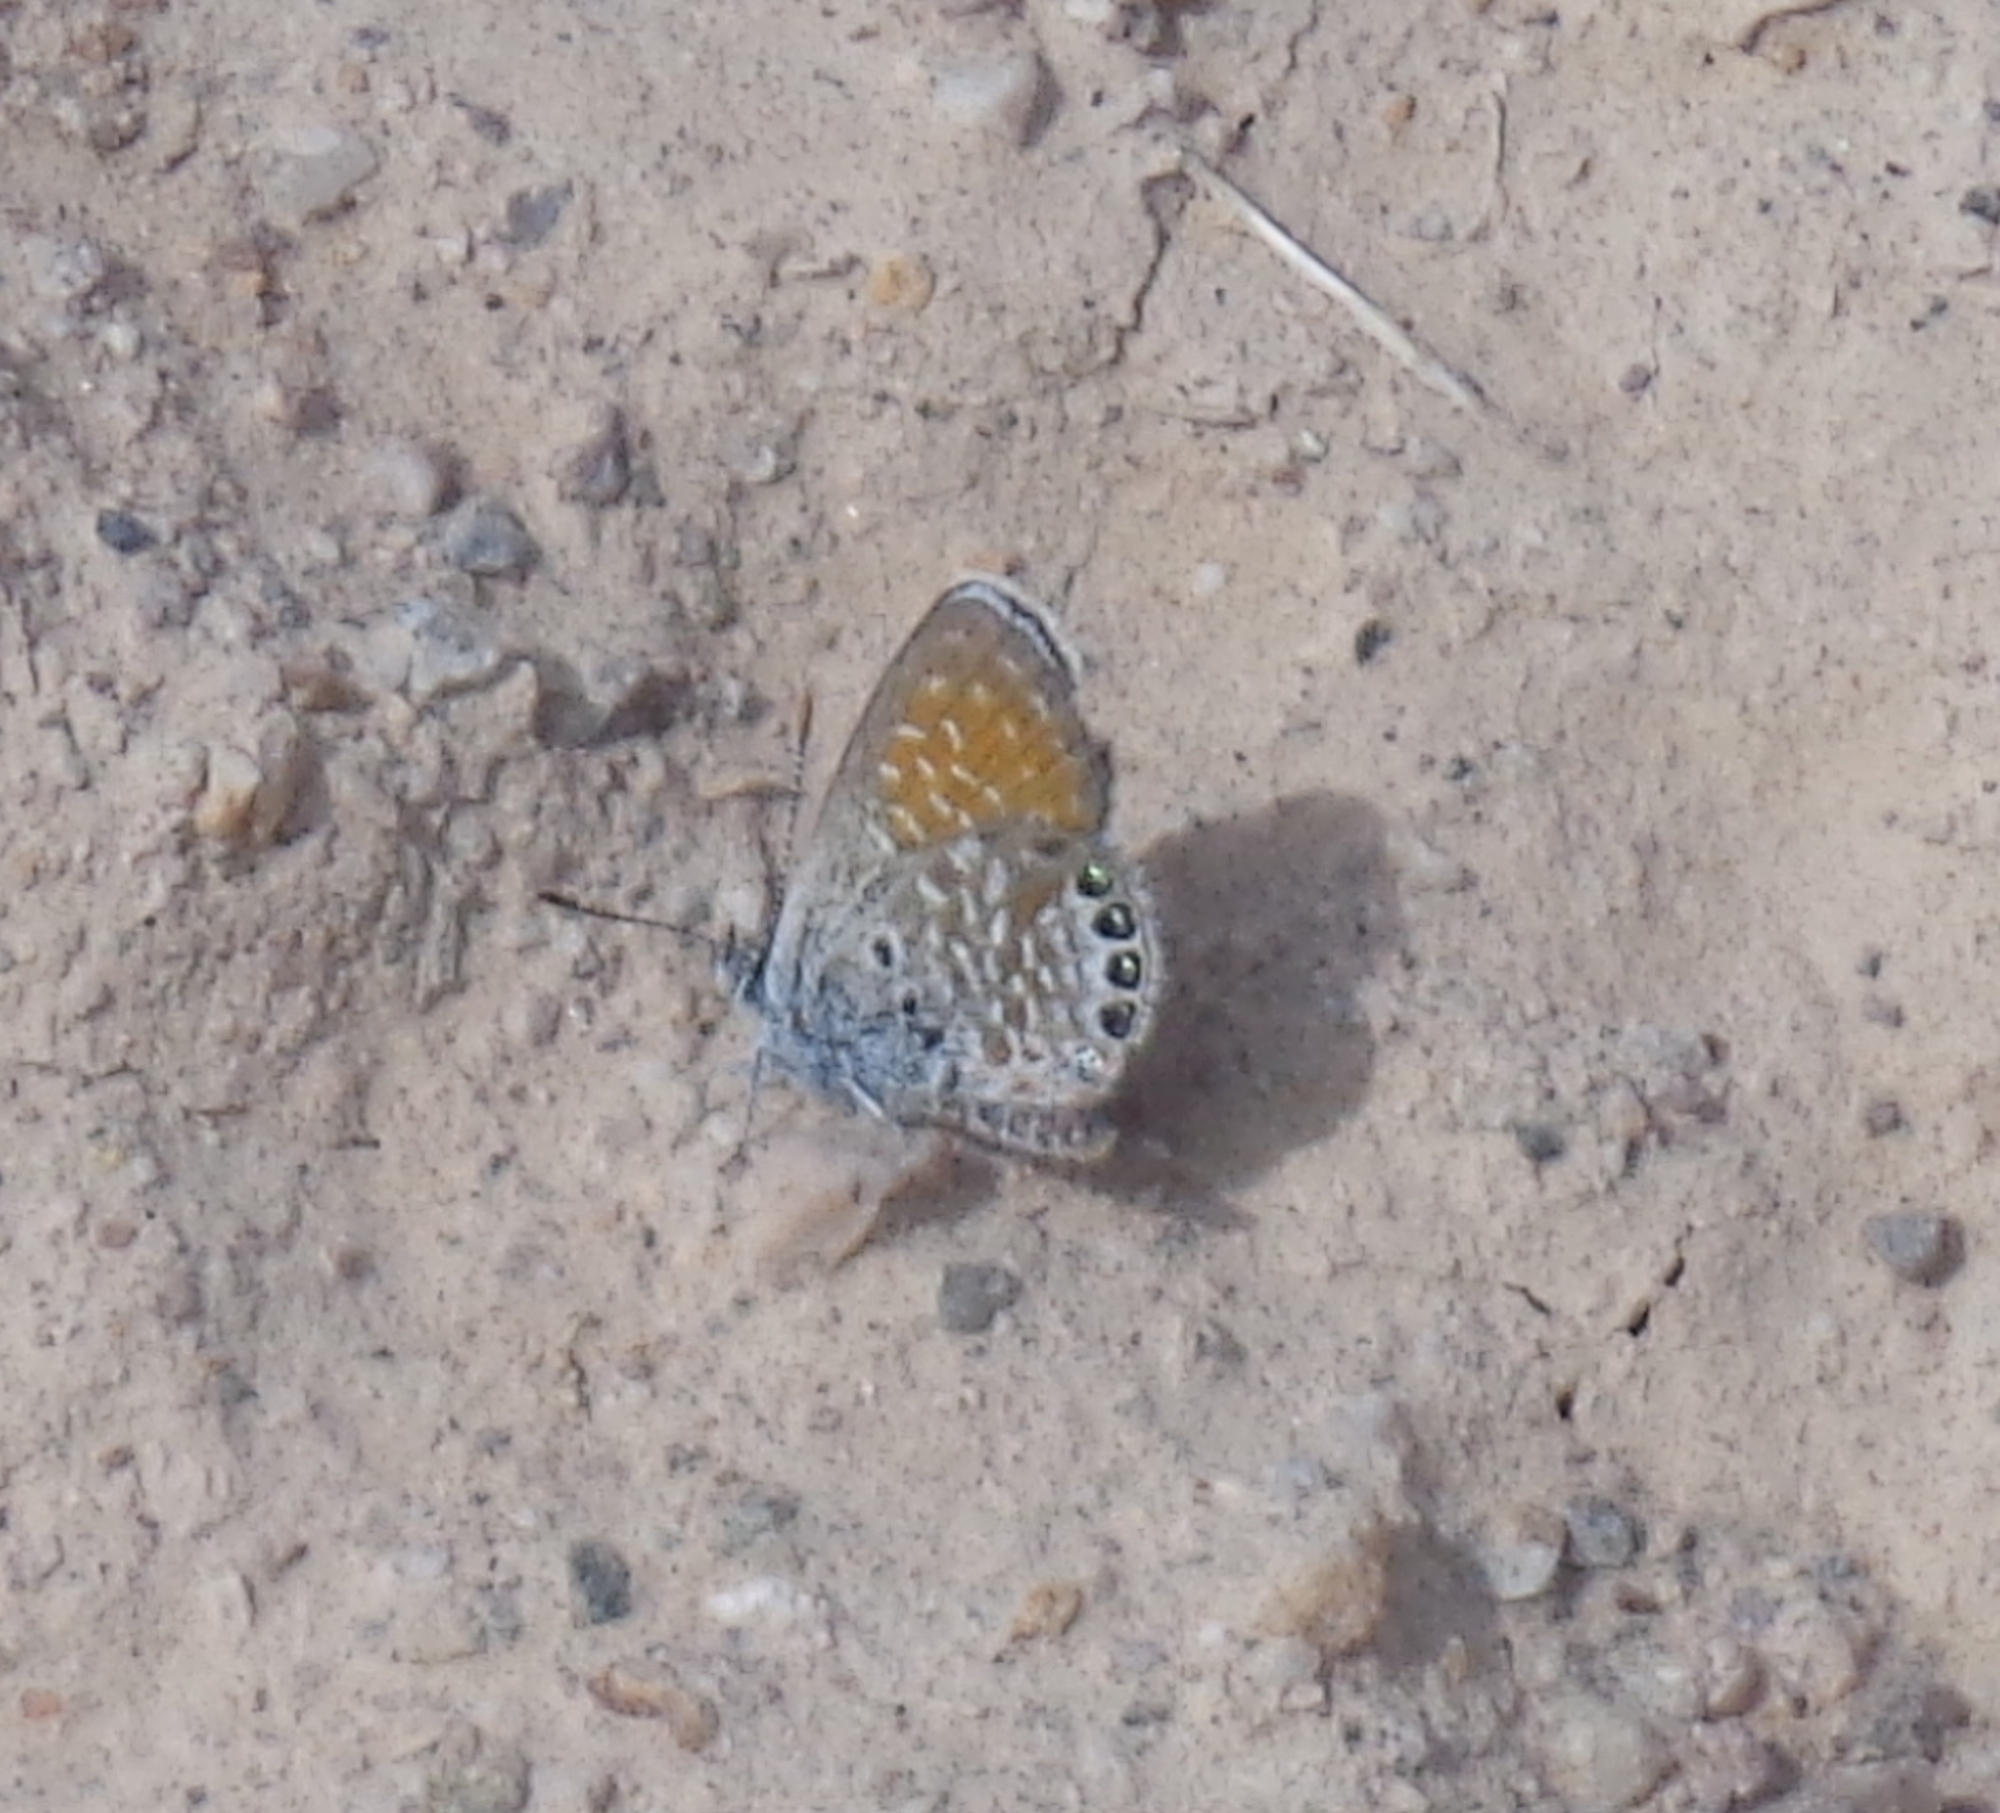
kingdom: Animalia
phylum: Arthropoda
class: Insecta
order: Lepidoptera
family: Lycaenidae
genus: Brephidium
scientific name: Brephidium exilis
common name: Pygmy blue
